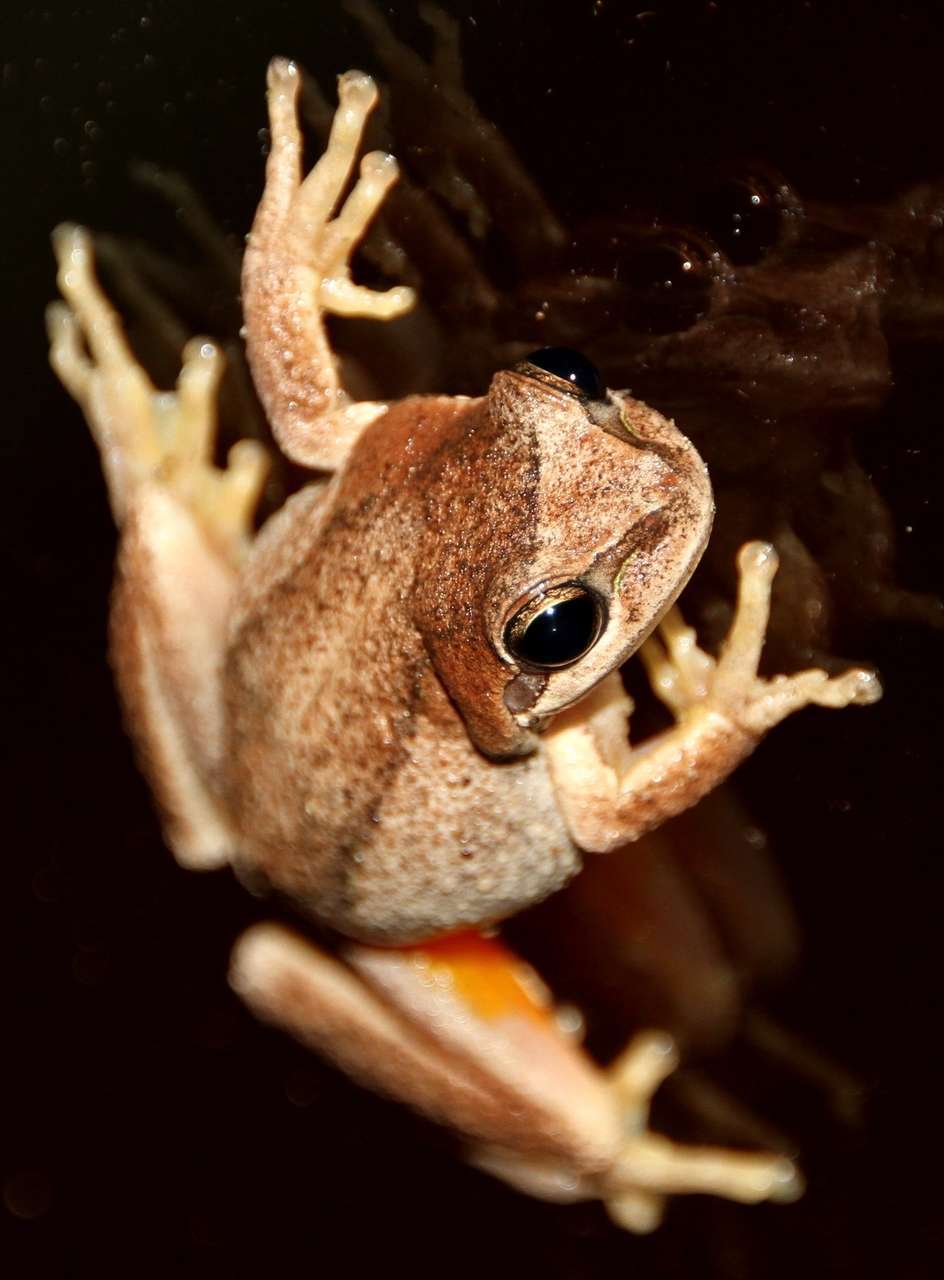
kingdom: Animalia
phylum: Chordata
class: Amphibia
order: Anura
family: Pelodryadidae
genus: Litoria
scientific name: Litoria ewingii
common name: Southern brown tree frog
